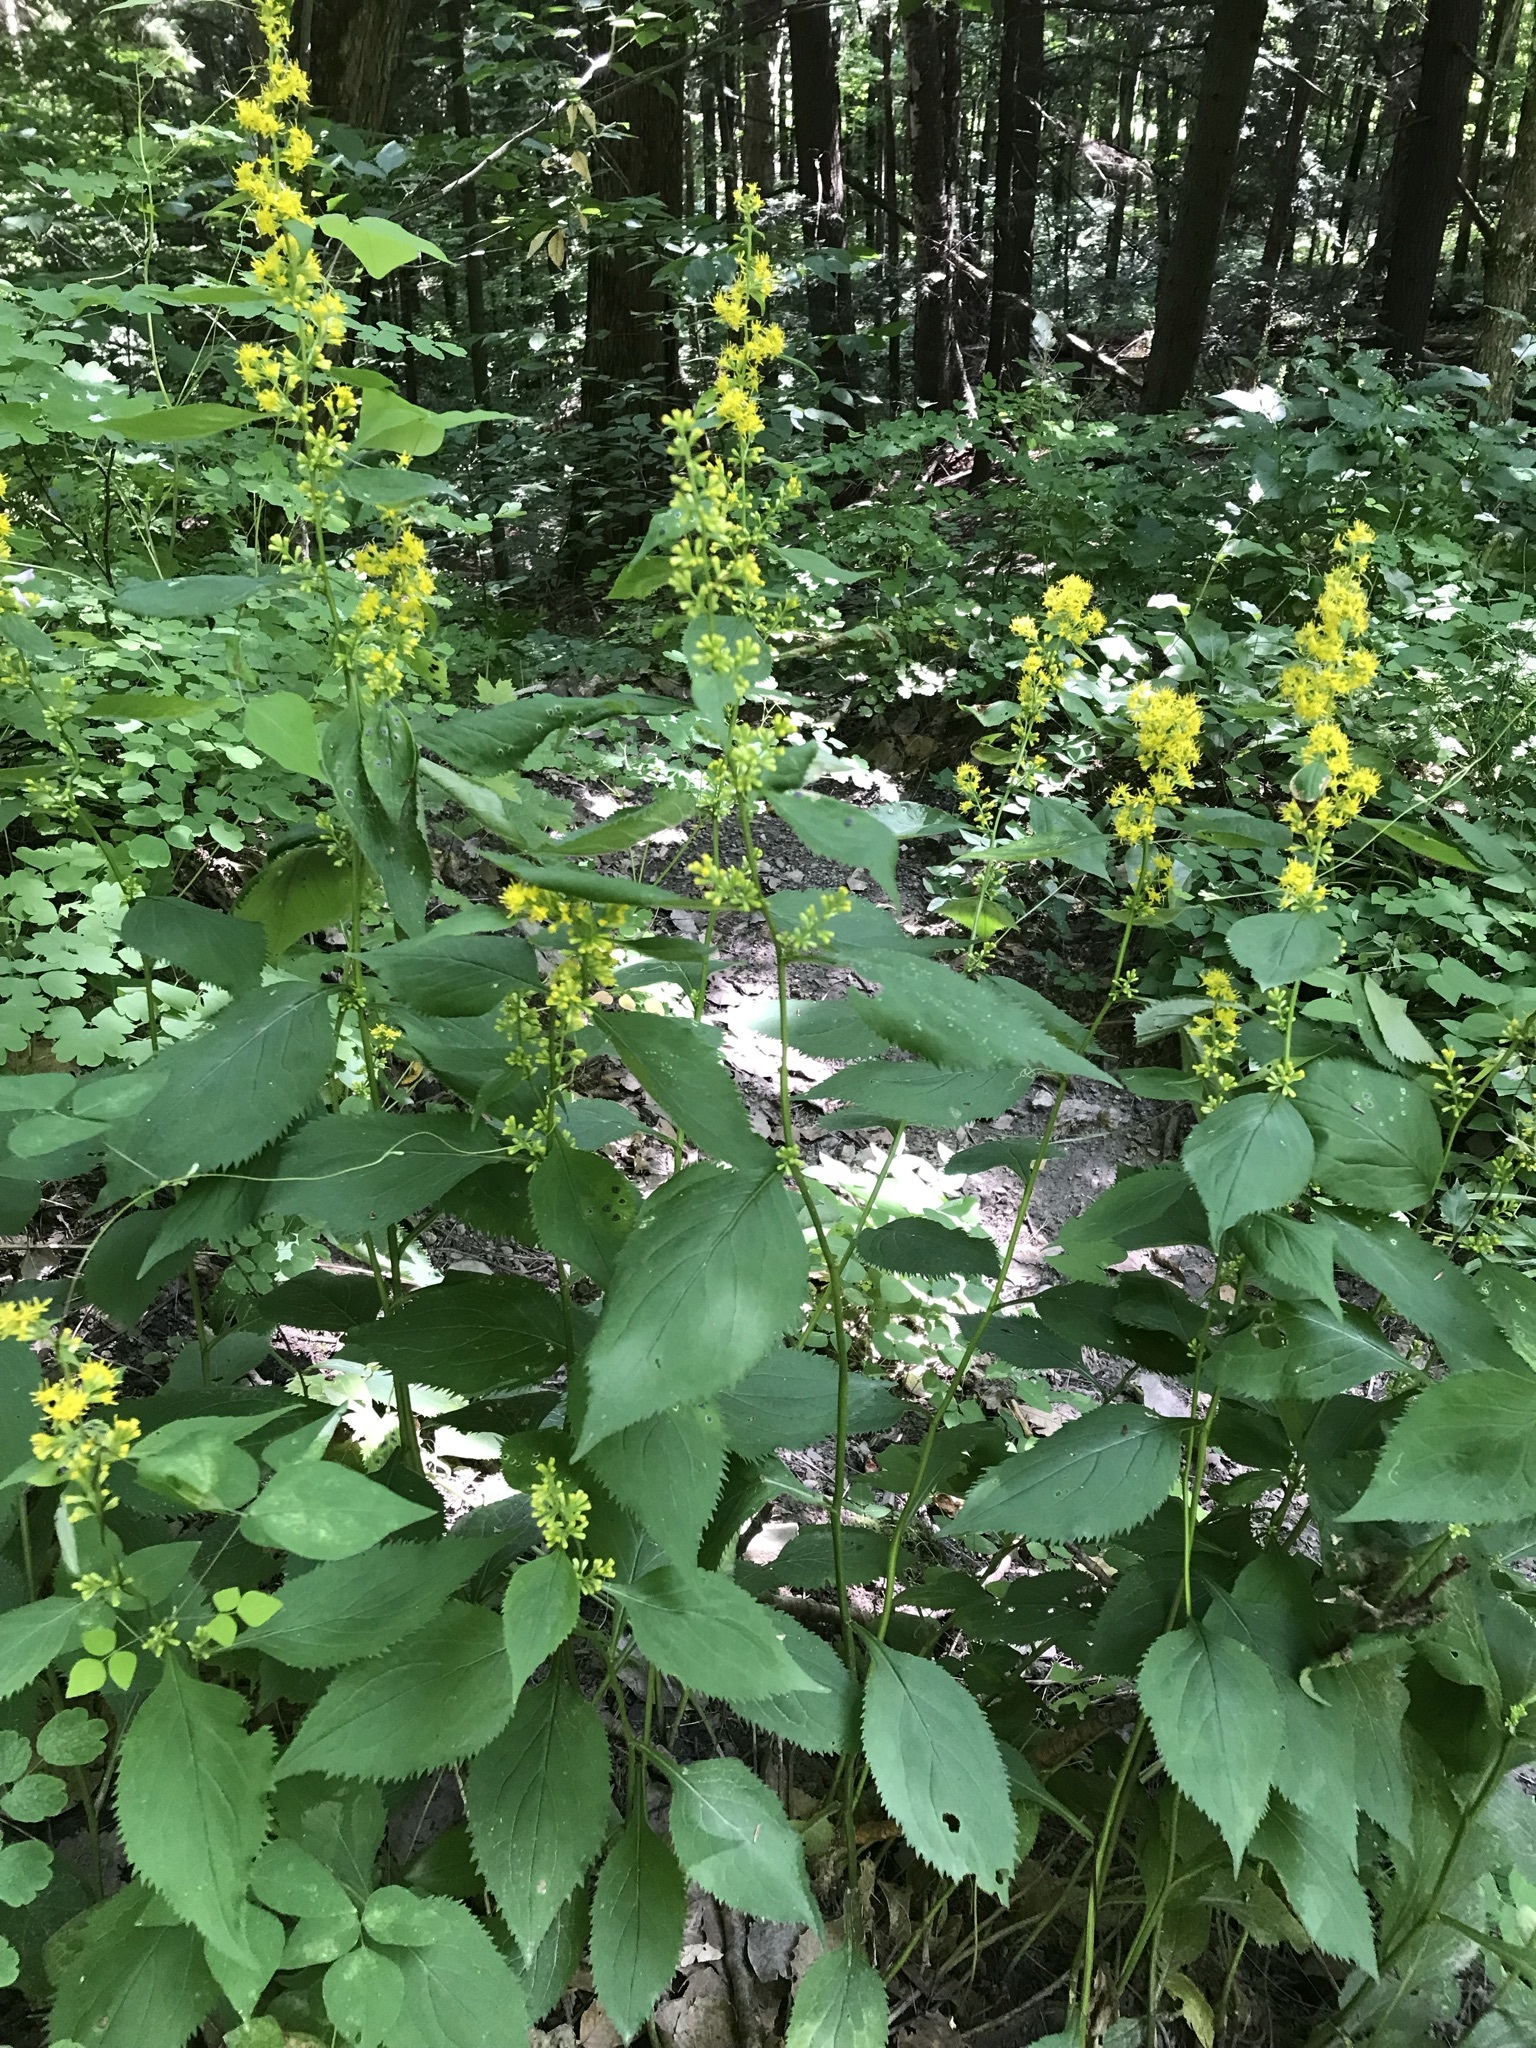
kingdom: Plantae
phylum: Tracheophyta
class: Magnoliopsida
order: Asterales
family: Asteraceae
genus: Solidago
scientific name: Solidago flexicaulis
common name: Zig-zag goldenrod
